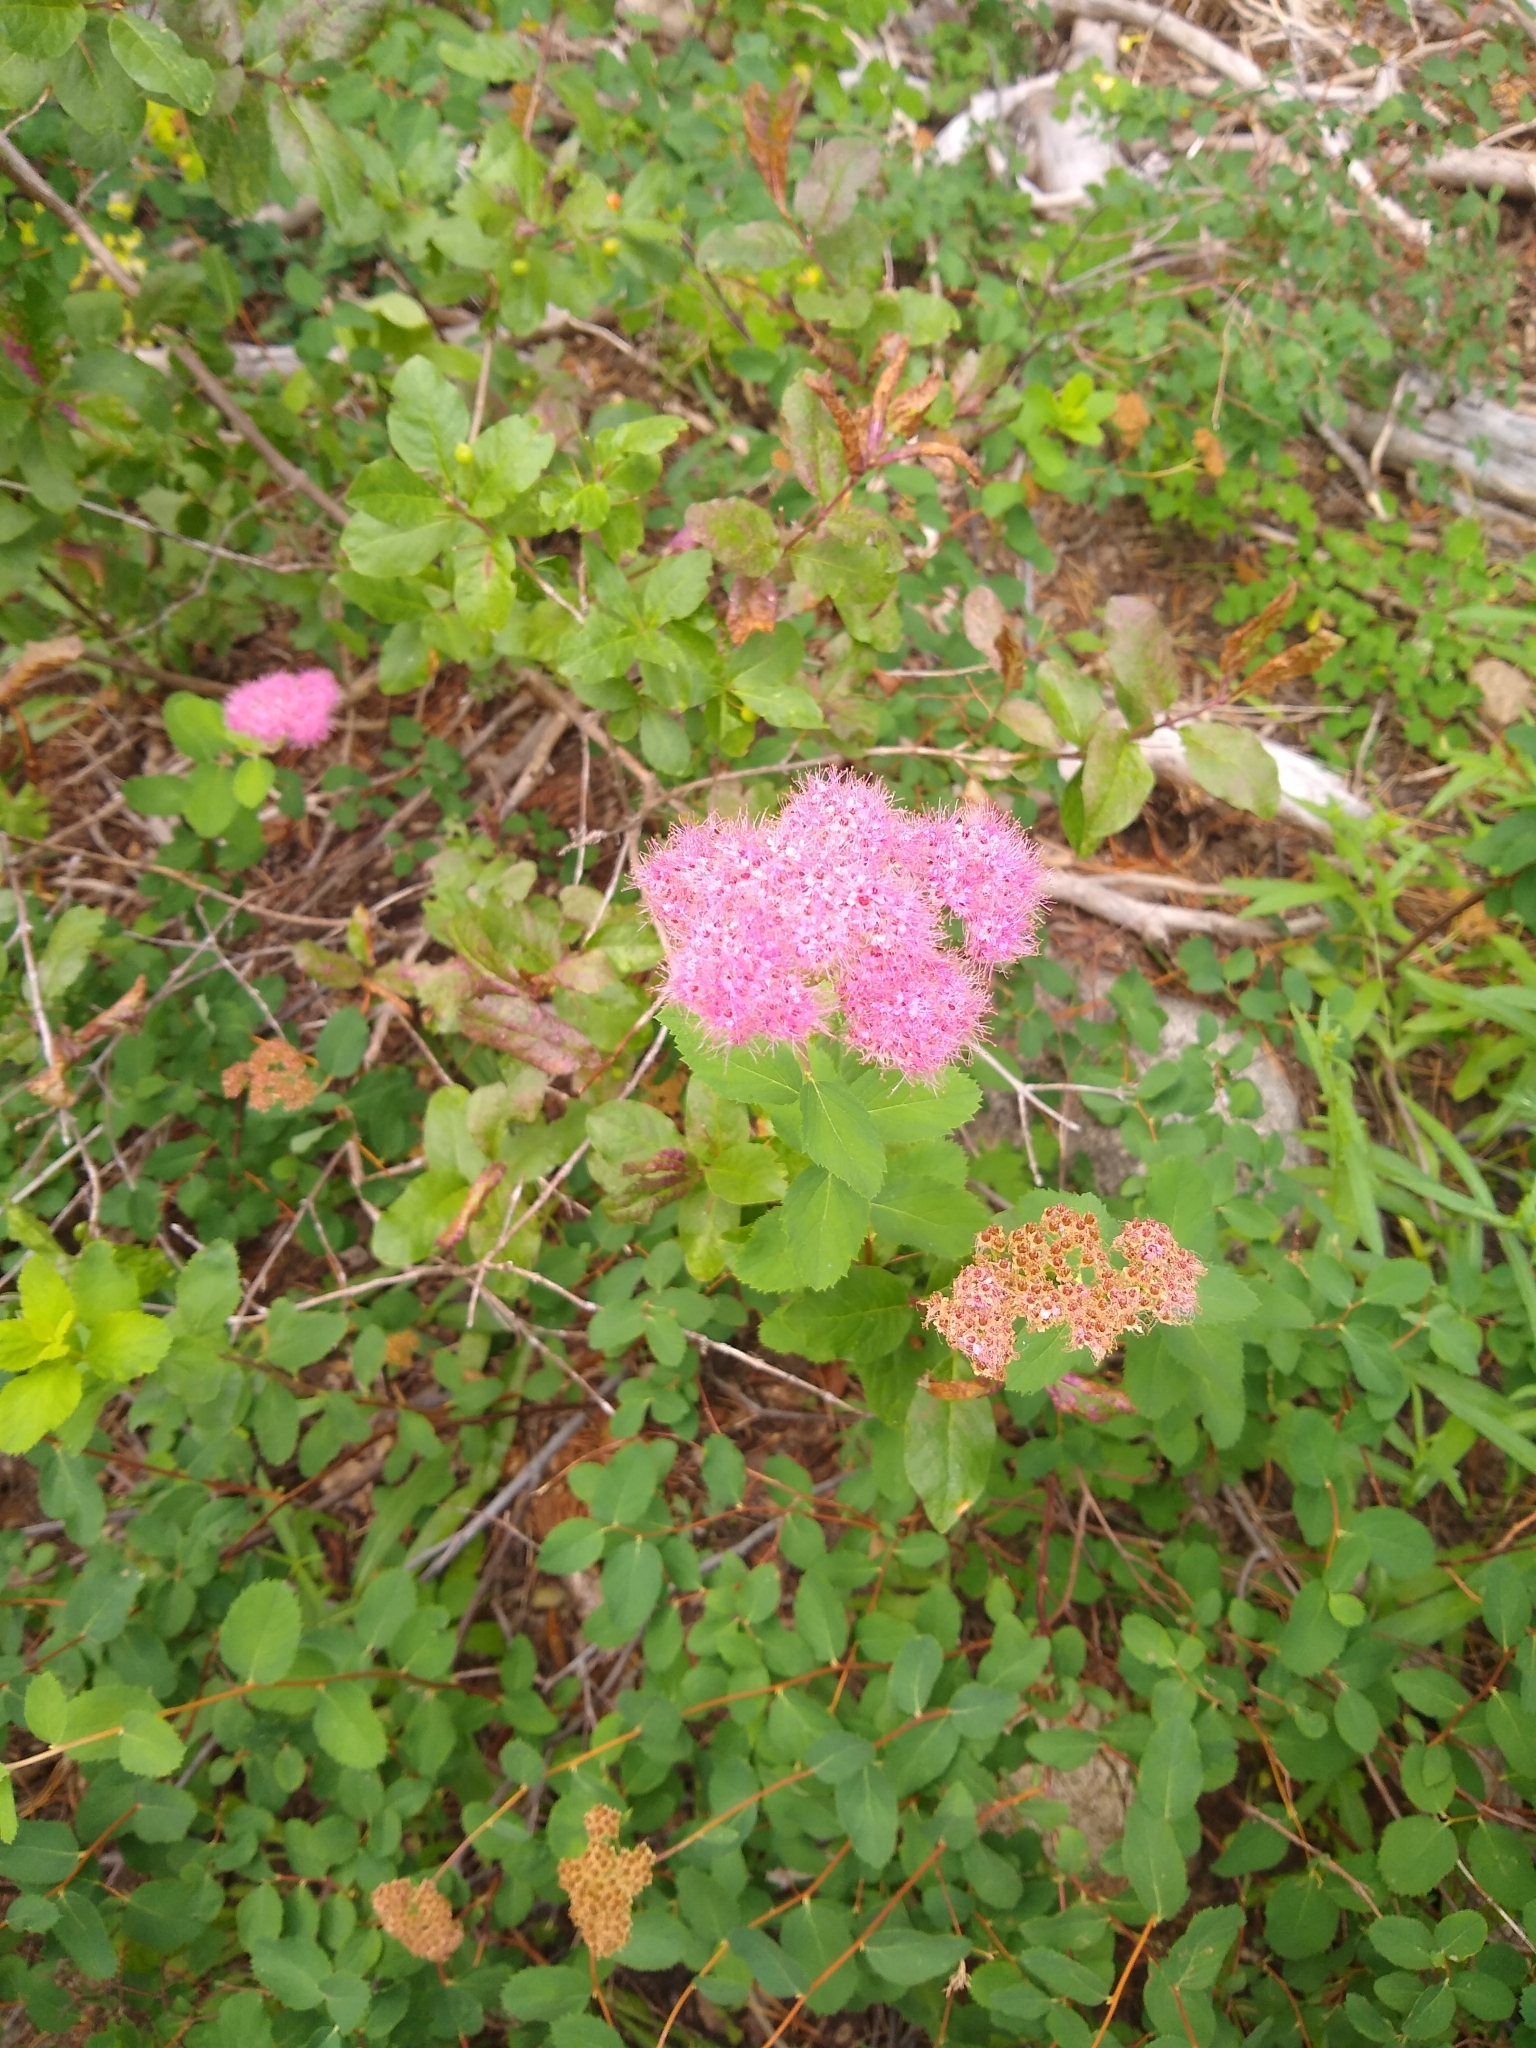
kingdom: Plantae
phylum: Tracheophyta
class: Magnoliopsida
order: Rosales
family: Rosaceae
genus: Spiraea
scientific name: Spiraea splendens
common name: Subalpine meadowsweet
